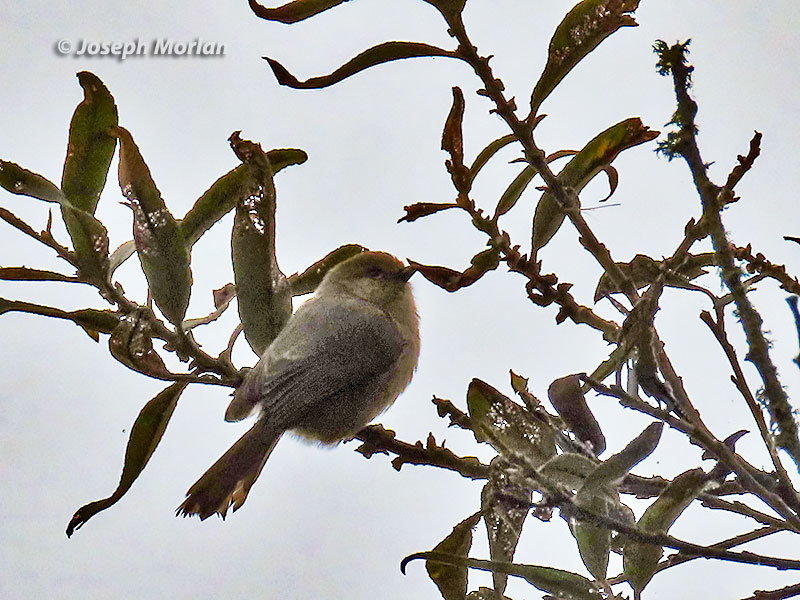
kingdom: Animalia
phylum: Chordata
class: Aves
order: Passeriformes
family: Aegithalidae
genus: Psaltriparus
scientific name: Psaltriparus minimus
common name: American bushtit
